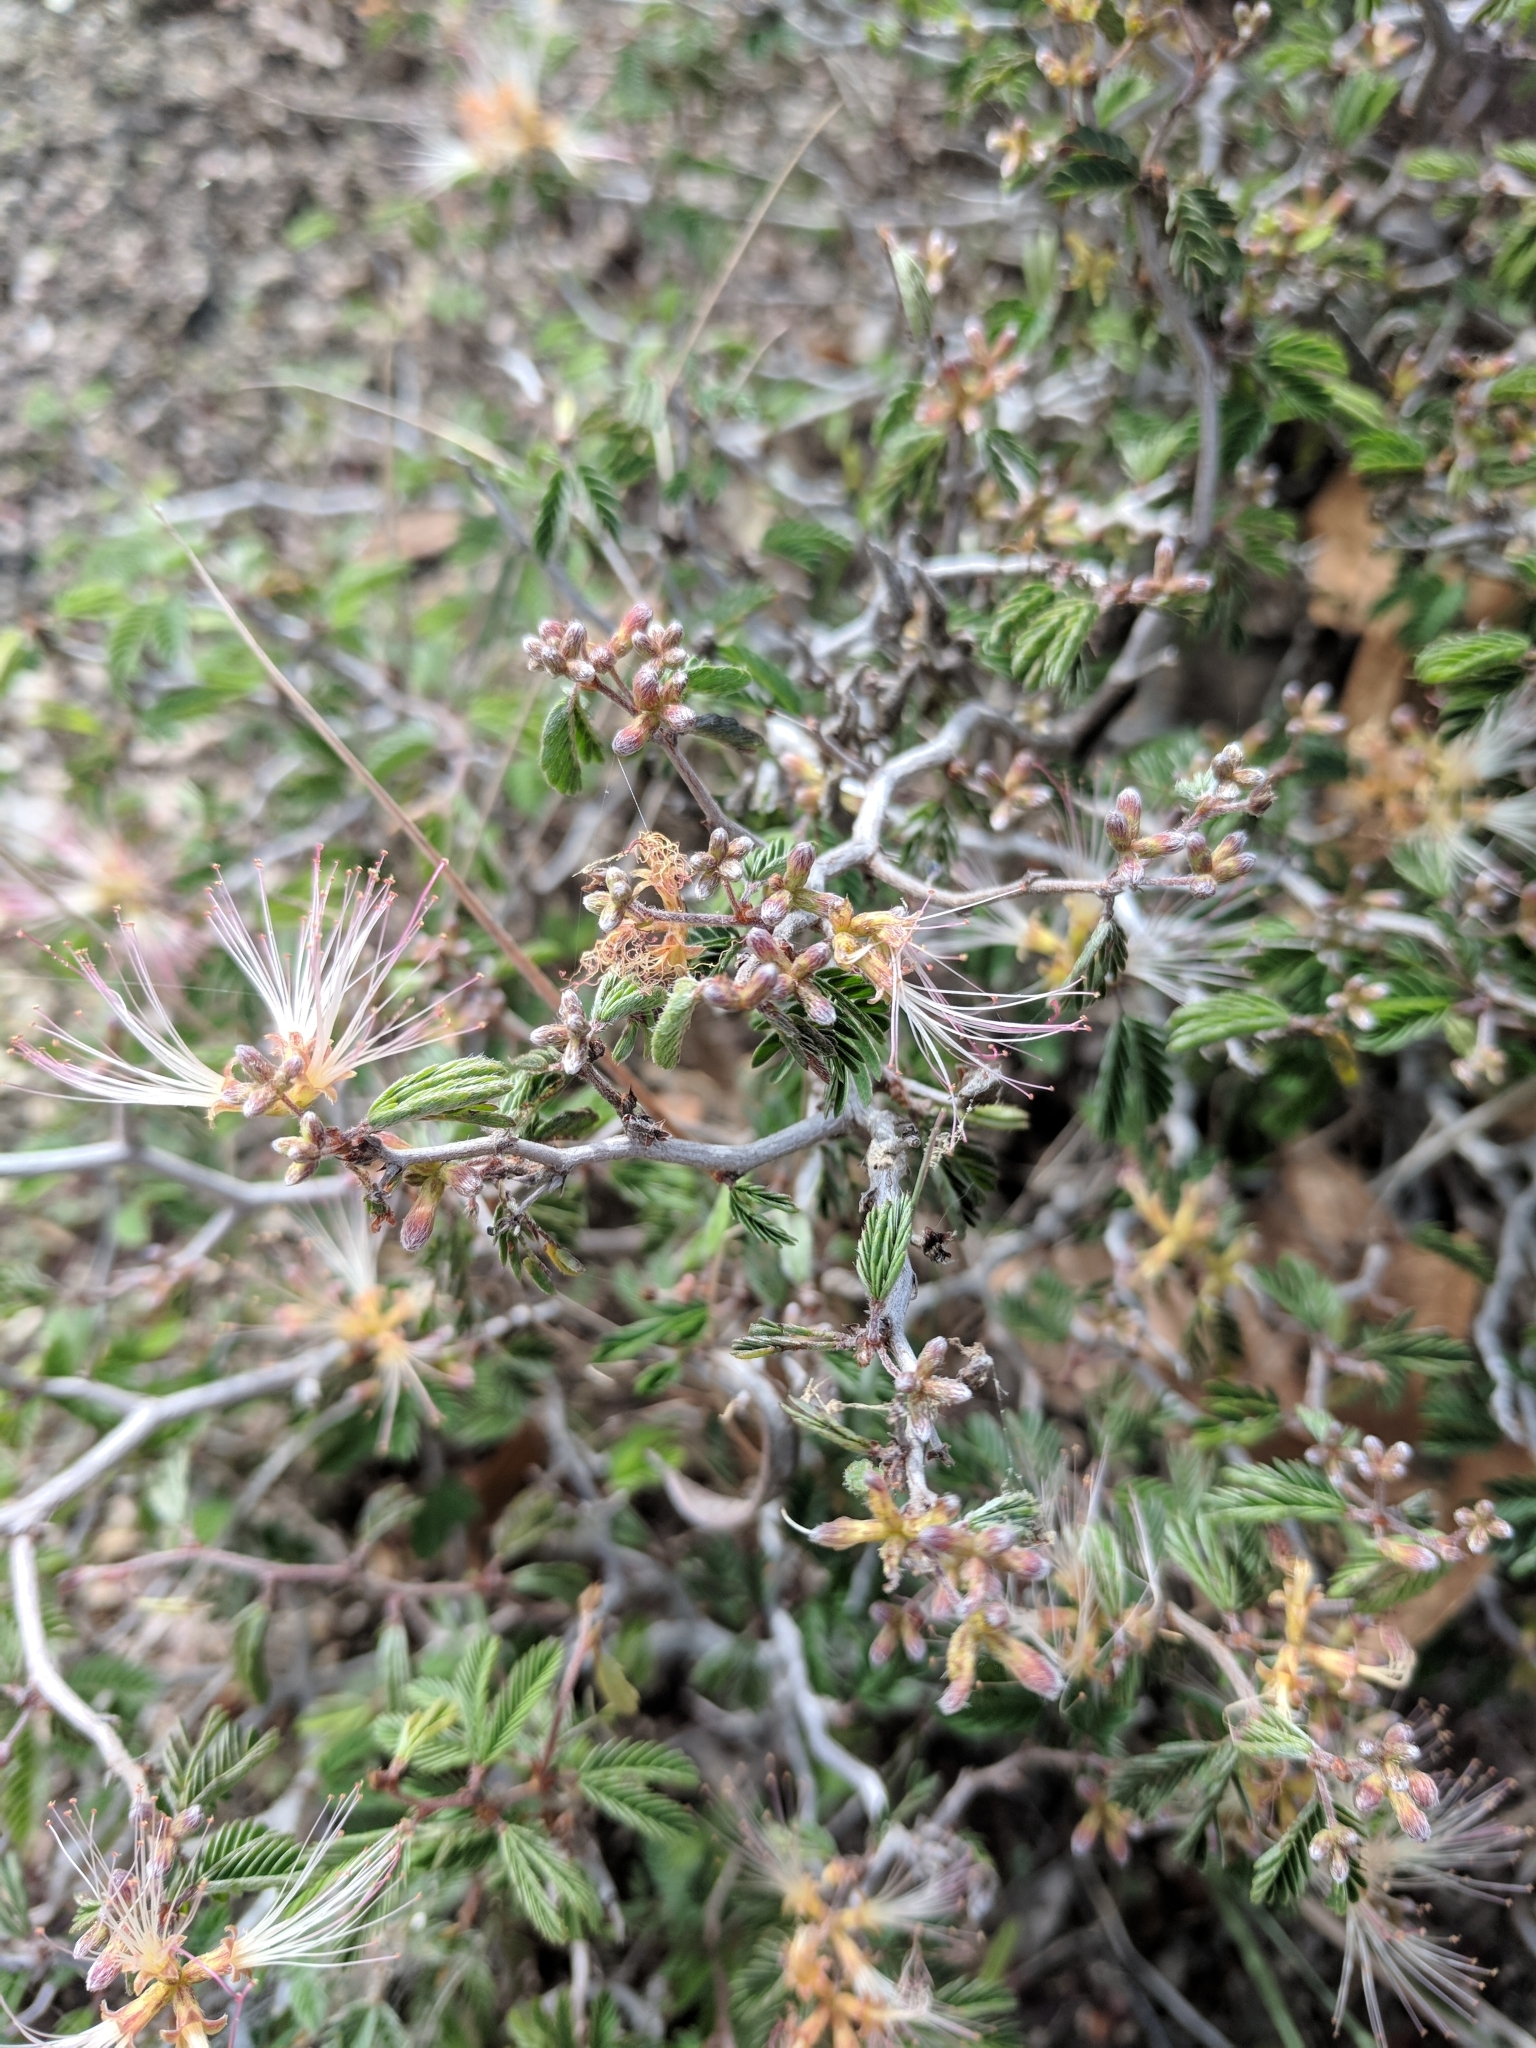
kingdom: Plantae
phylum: Tracheophyta
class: Magnoliopsida
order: Fabales
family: Fabaceae
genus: Calliandra
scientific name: Calliandra conferta
